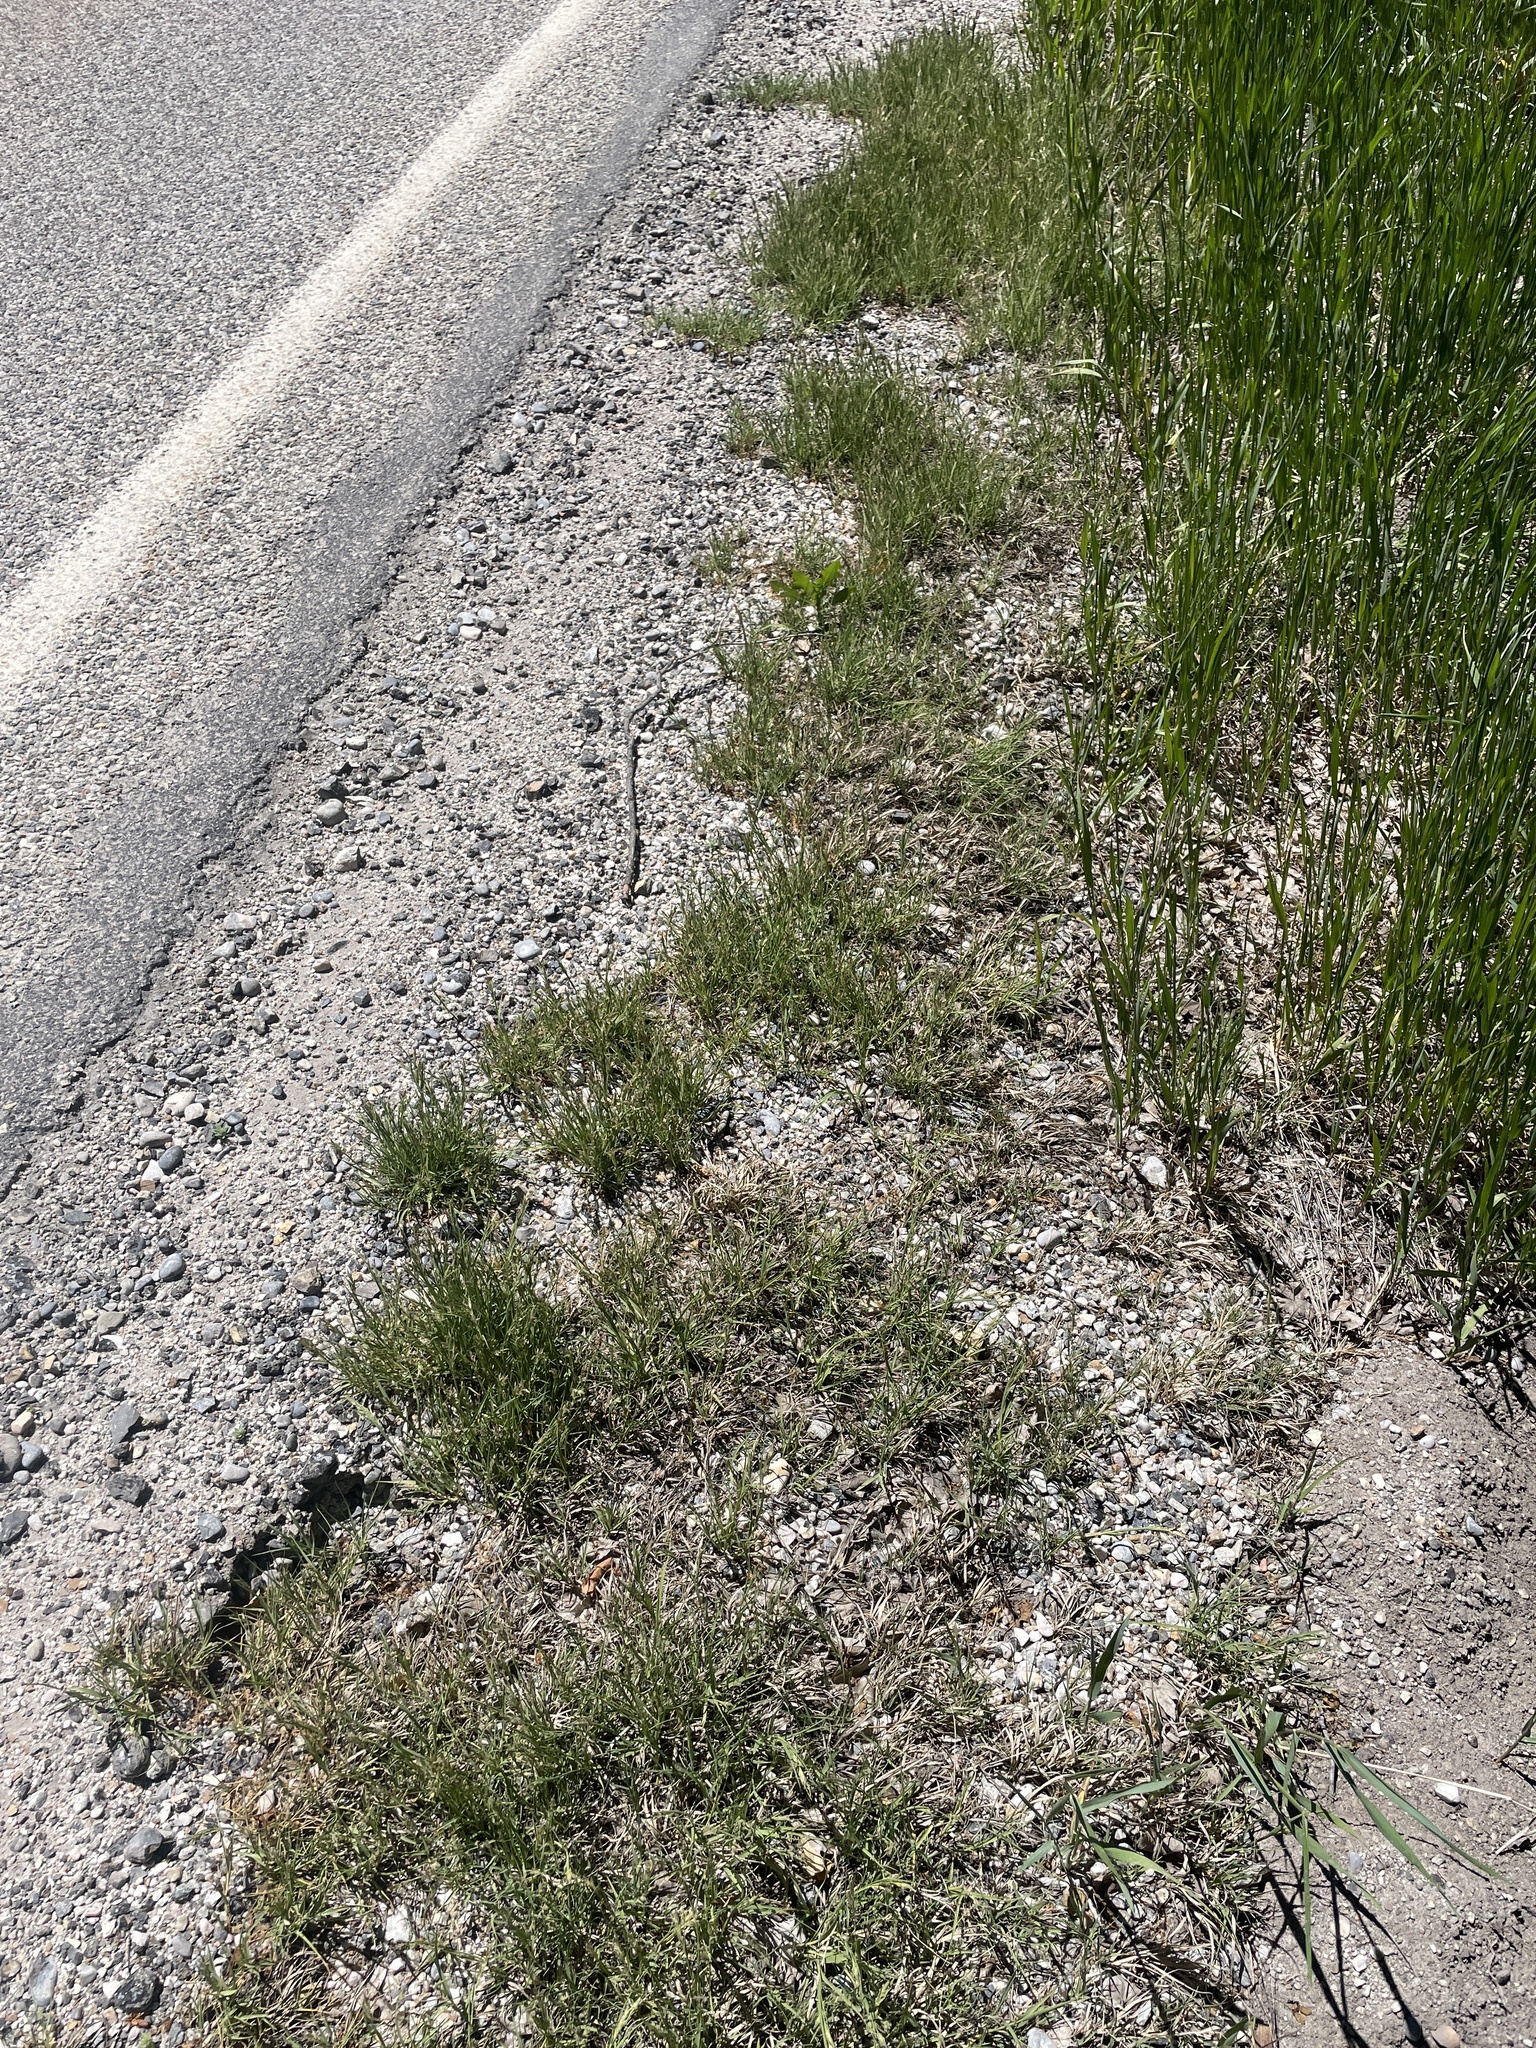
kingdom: Plantae
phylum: Tracheophyta
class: Liliopsida
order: Poales
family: Poaceae
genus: Distichlis
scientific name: Distichlis spicata
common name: Saltgrass
